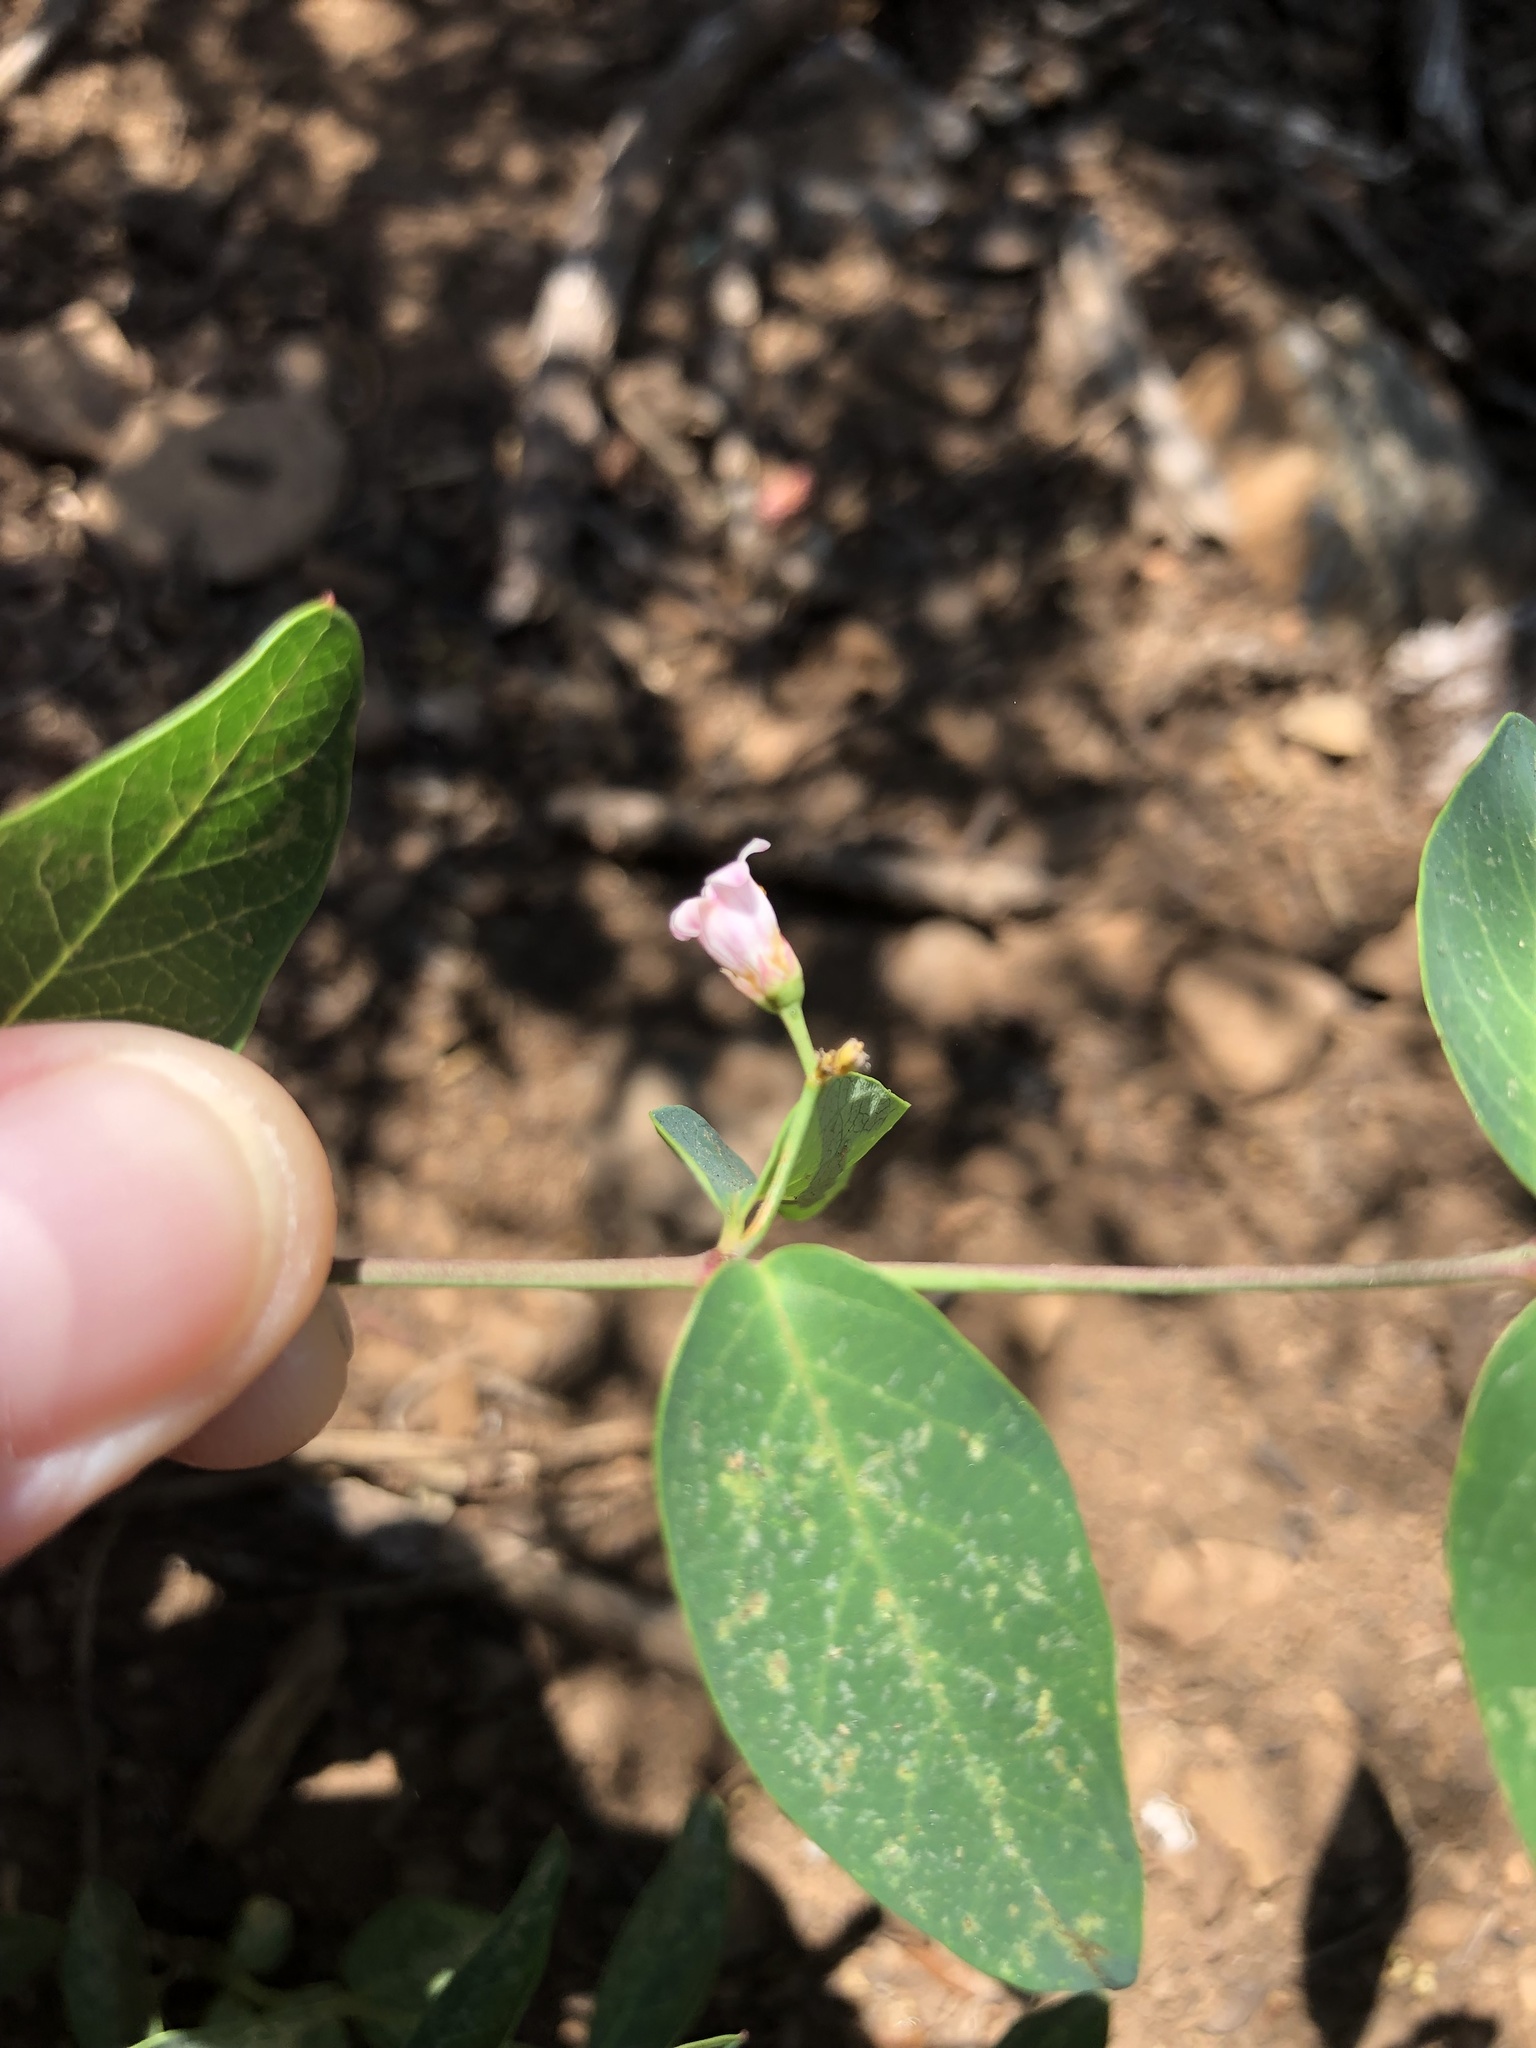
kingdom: Plantae
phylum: Tracheophyta
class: Magnoliopsida
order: Gentianales
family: Apocynaceae
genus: Apocynum
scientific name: Apocynum androsaemifolium
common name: Spreading dogbane
